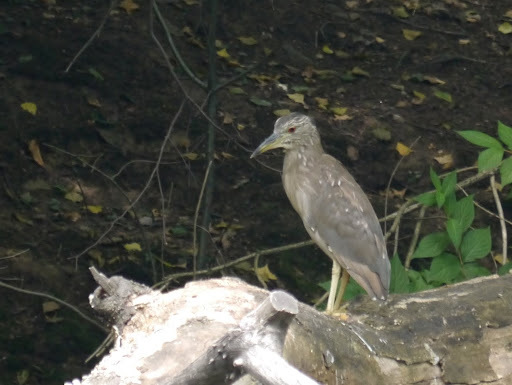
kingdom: Animalia
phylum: Chordata
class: Aves
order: Pelecaniformes
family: Ardeidae
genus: Nycticorax
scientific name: Nycticorax nycticorax
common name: Black-crowned night heron
